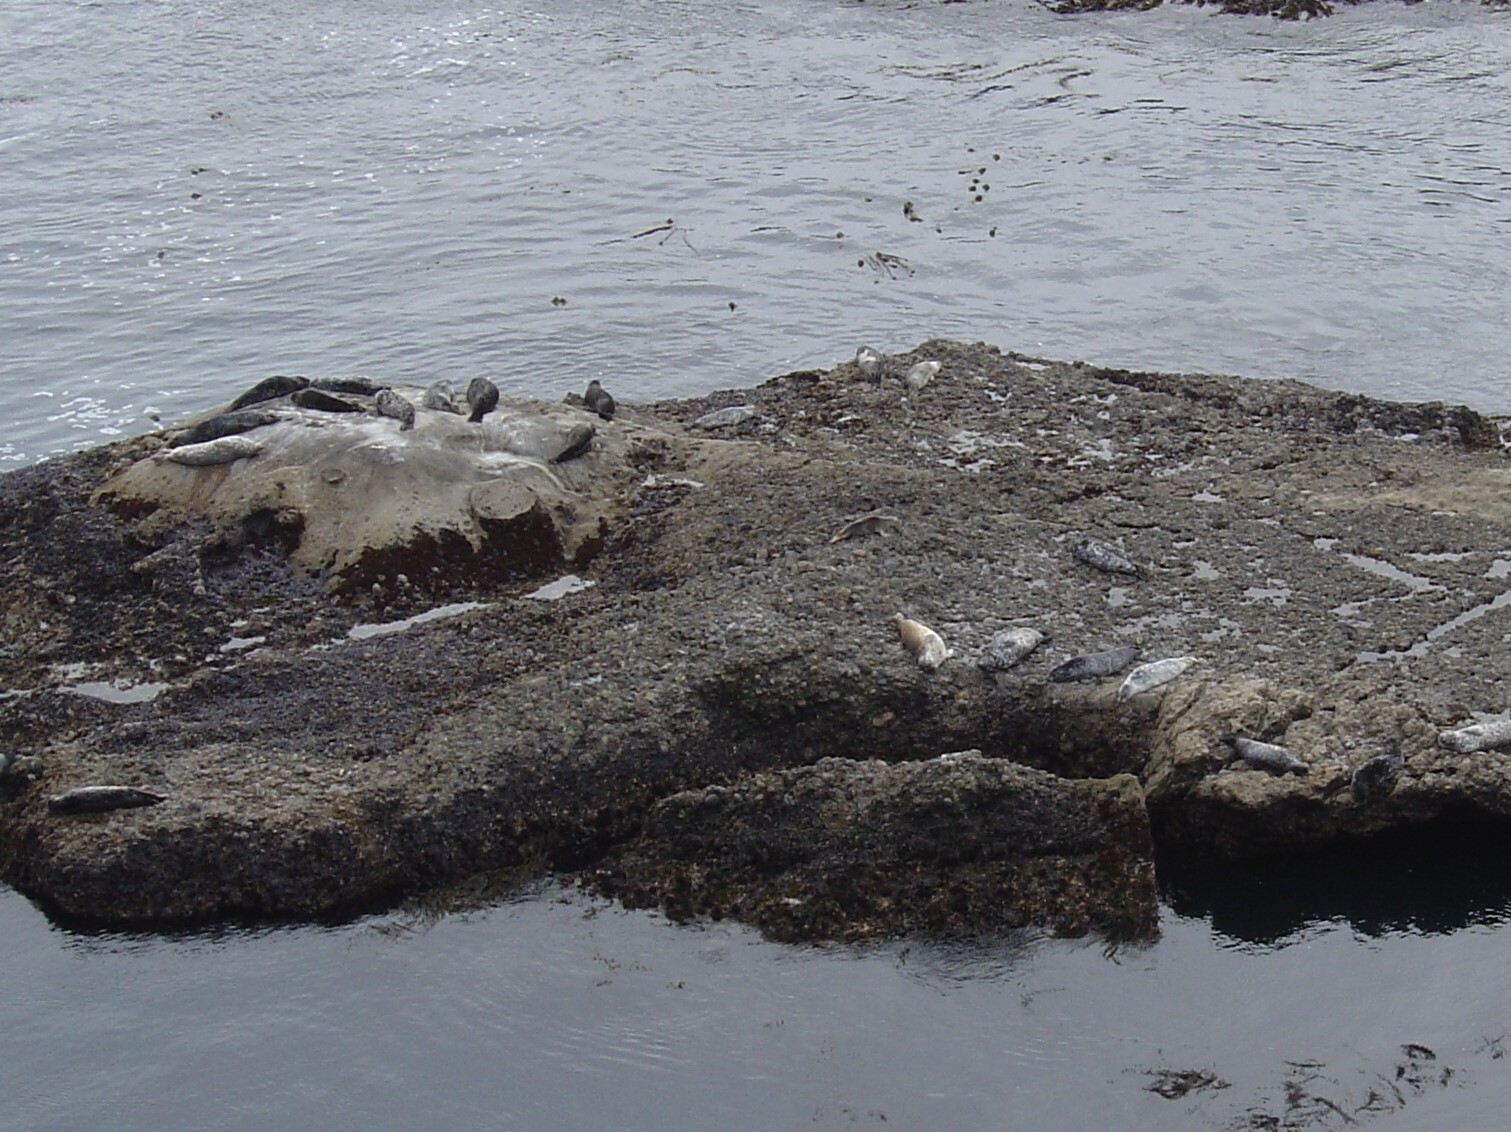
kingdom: Animalia
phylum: Chordata
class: Mammalia
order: Carnivora
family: Phocidae
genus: Phoca
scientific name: Phoca vitulina
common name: Harbor seal
